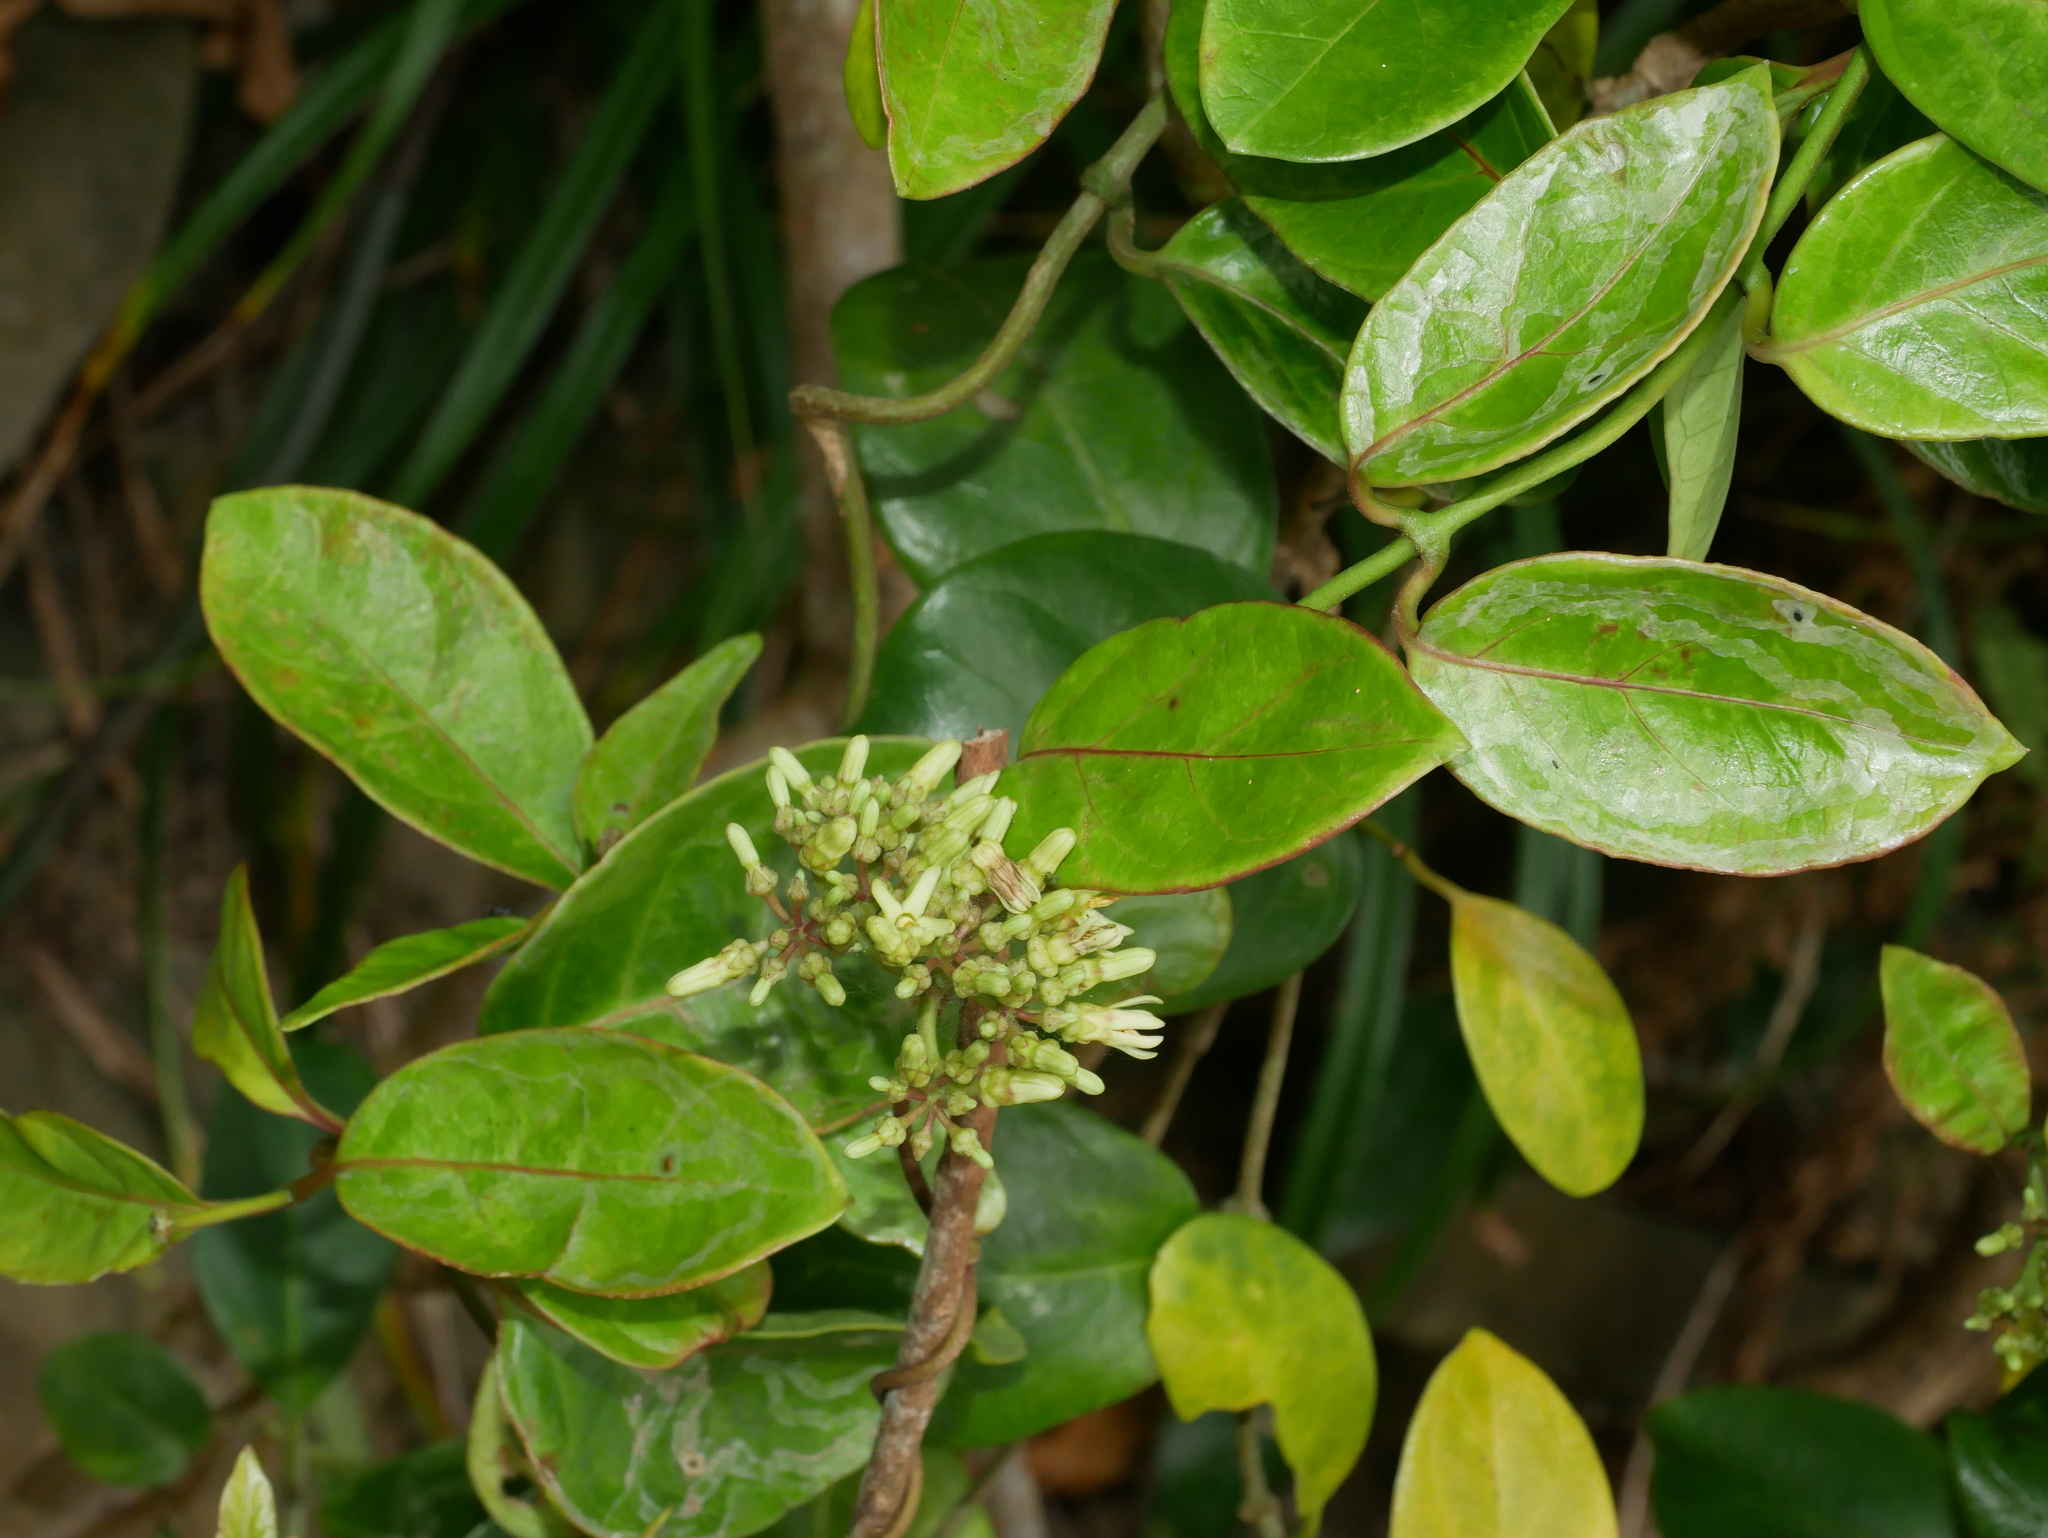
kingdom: Plantae
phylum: Tracheophyta
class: Magnoliopsida
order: Gentianales
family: Apocynaceae
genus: Parsonsia
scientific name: Parsonsia alboflavescens
